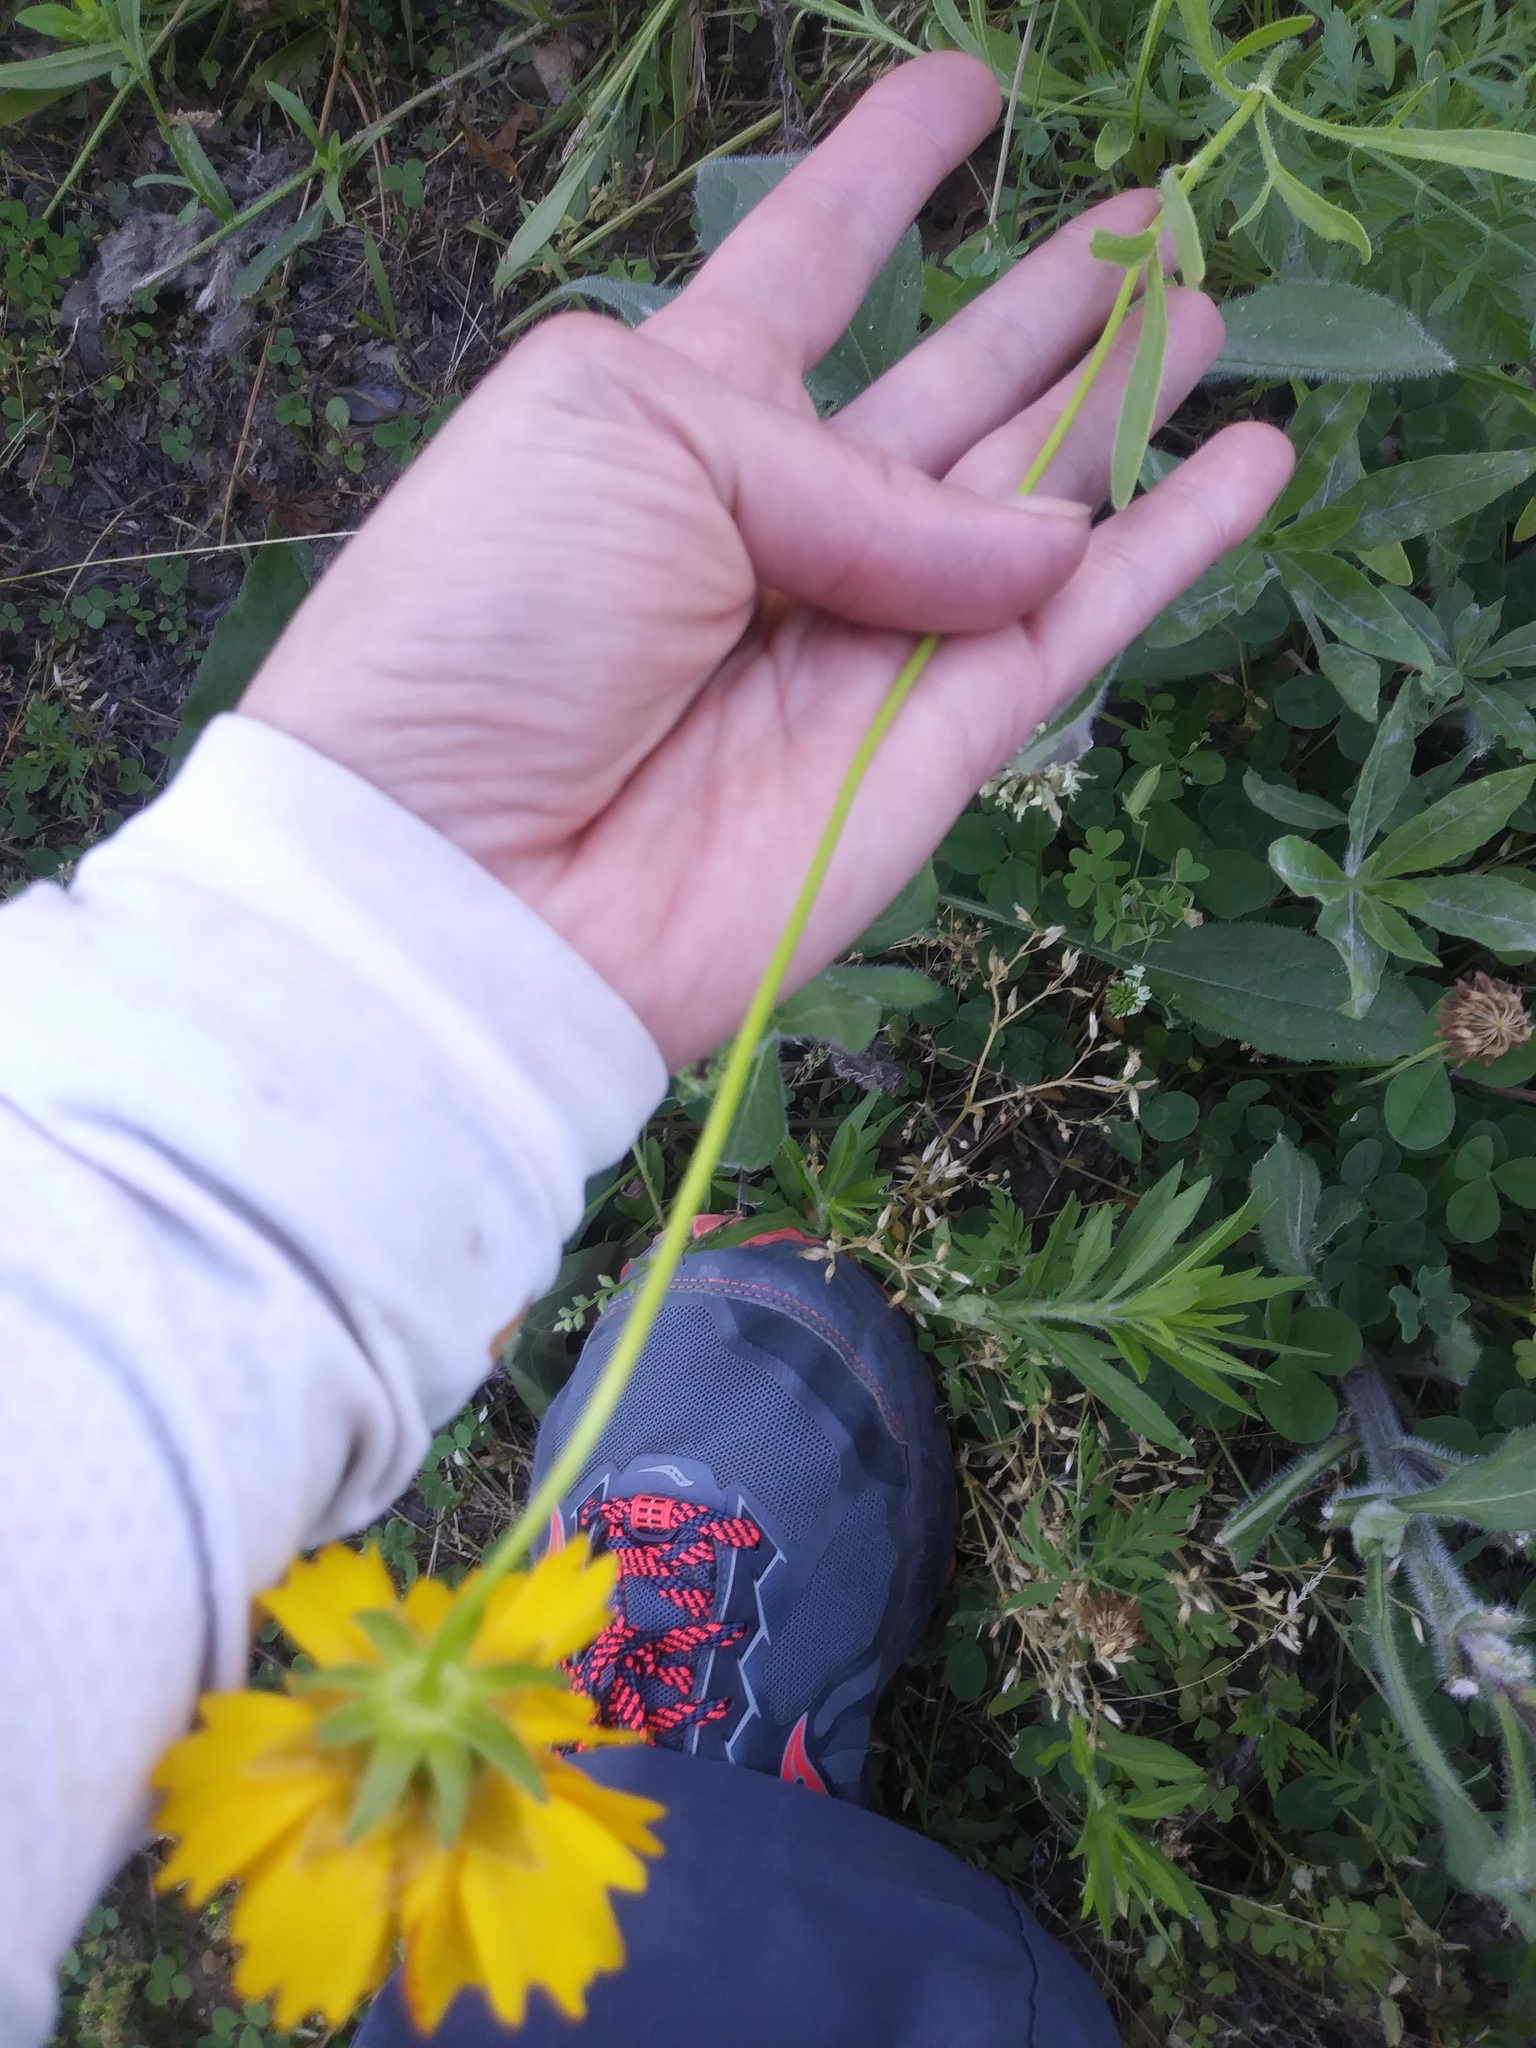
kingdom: Plantae
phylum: Tracheophyta
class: Magnoliopsida
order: Asterales
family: Asteraceae
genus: Coreopsis
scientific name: Coreopsis lanceolata
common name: Garden coreopsis
